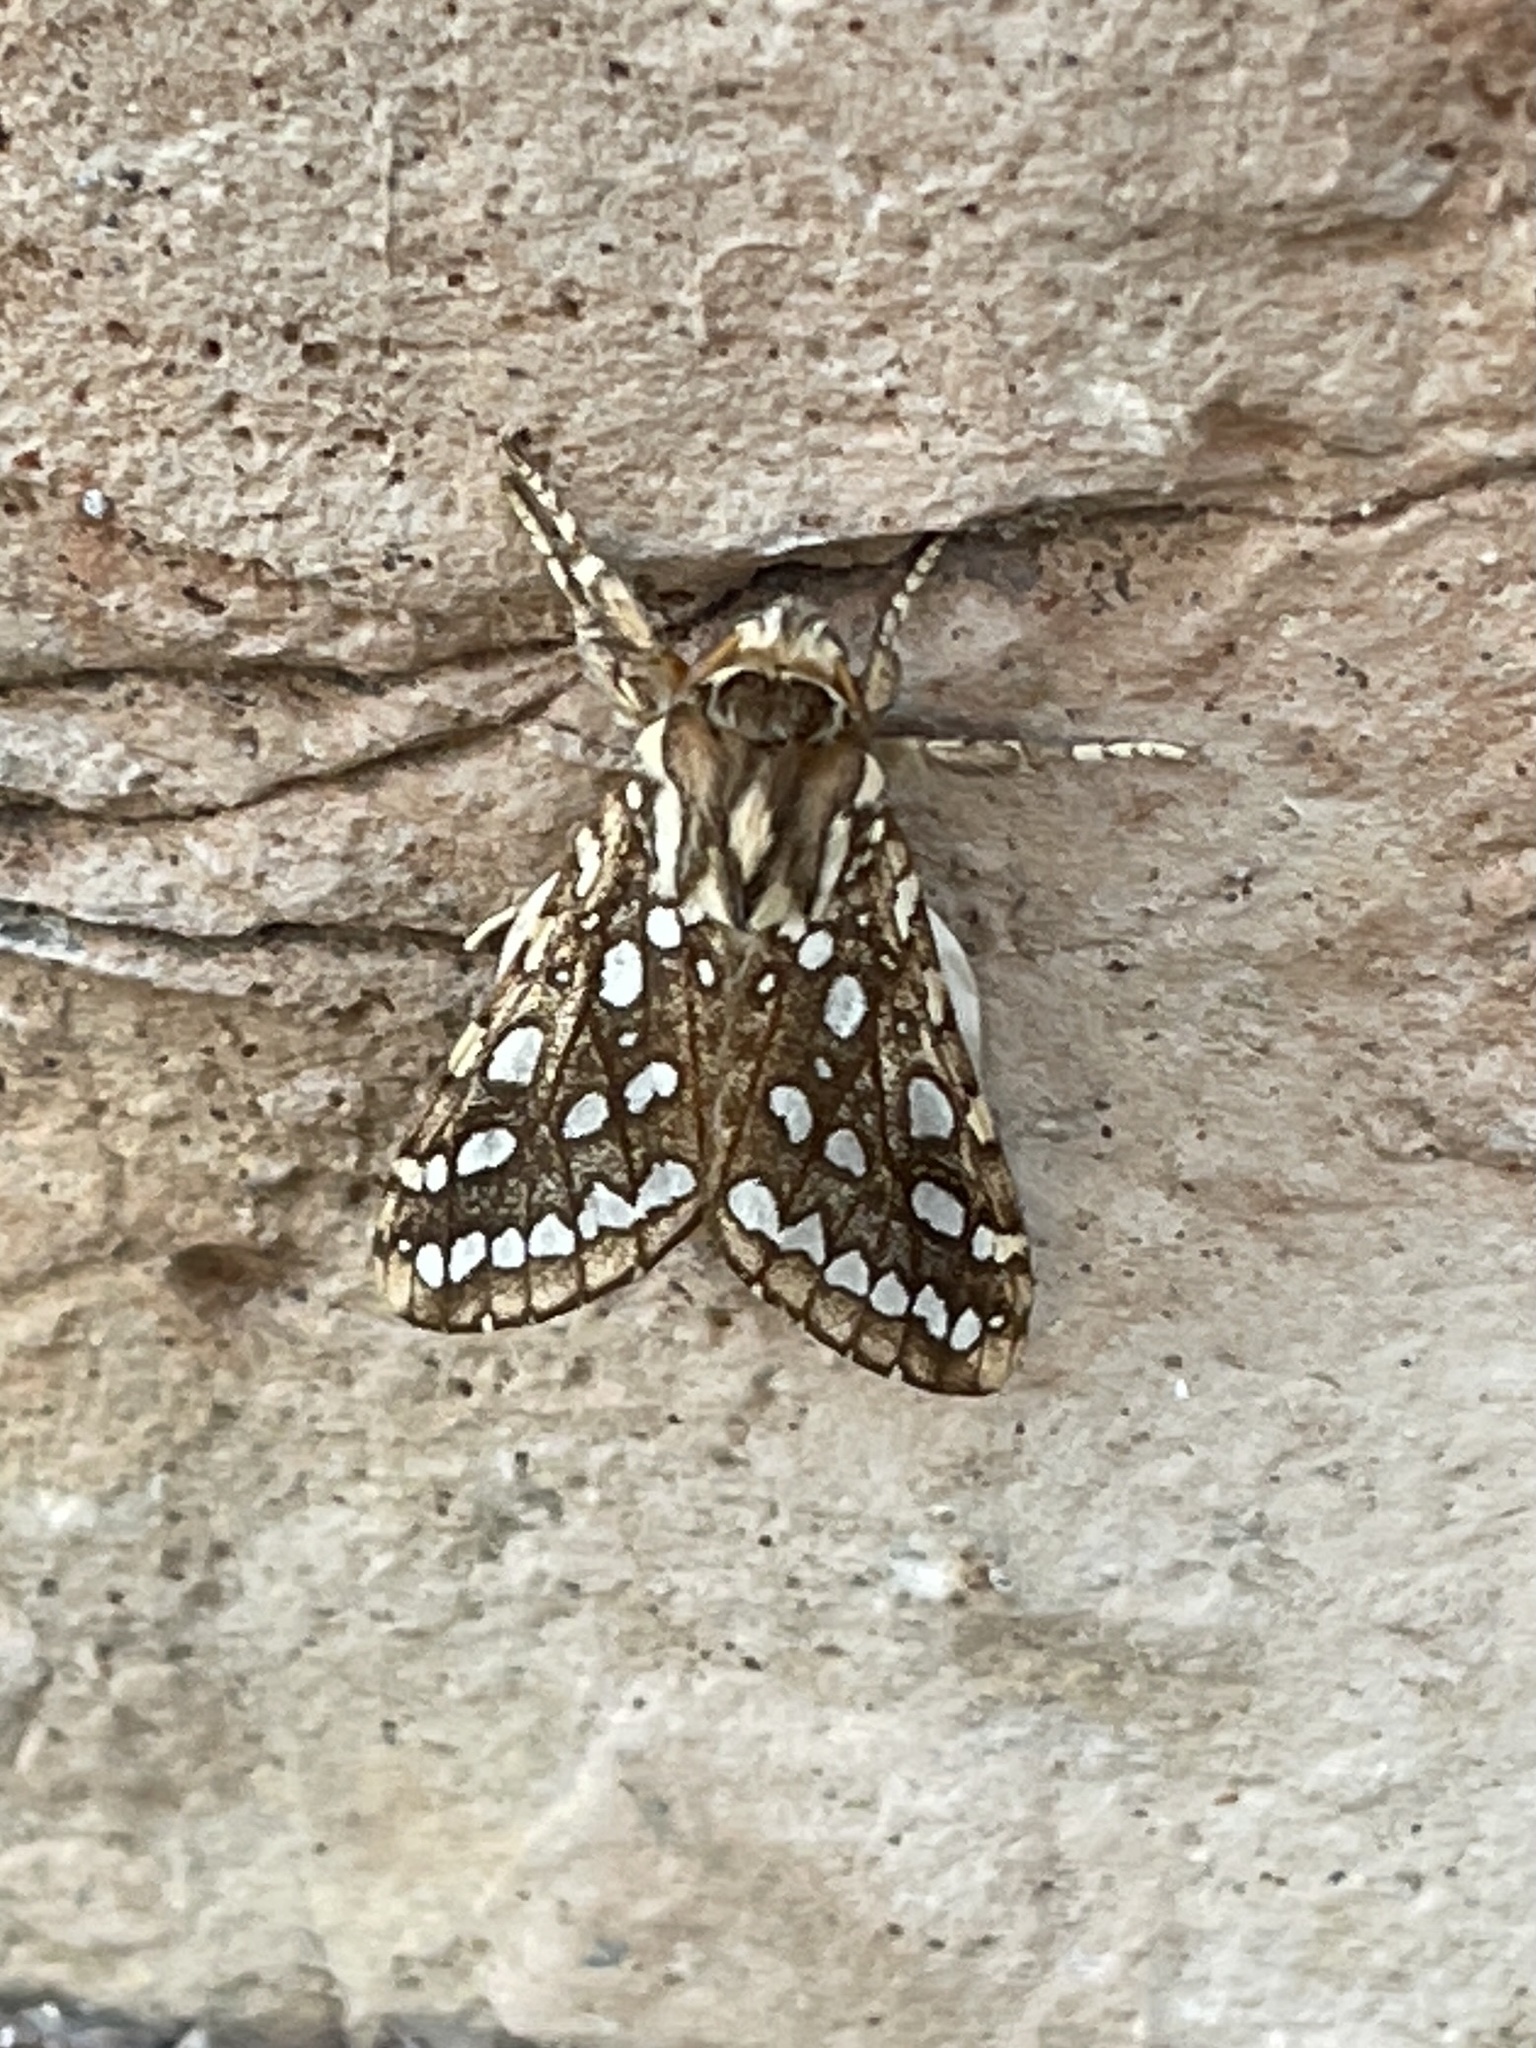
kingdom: Animalia
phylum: Arthropoda
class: Insecta
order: Lepidoptera
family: Erebidae
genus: Lophocampa
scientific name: Lophocampa argentata
